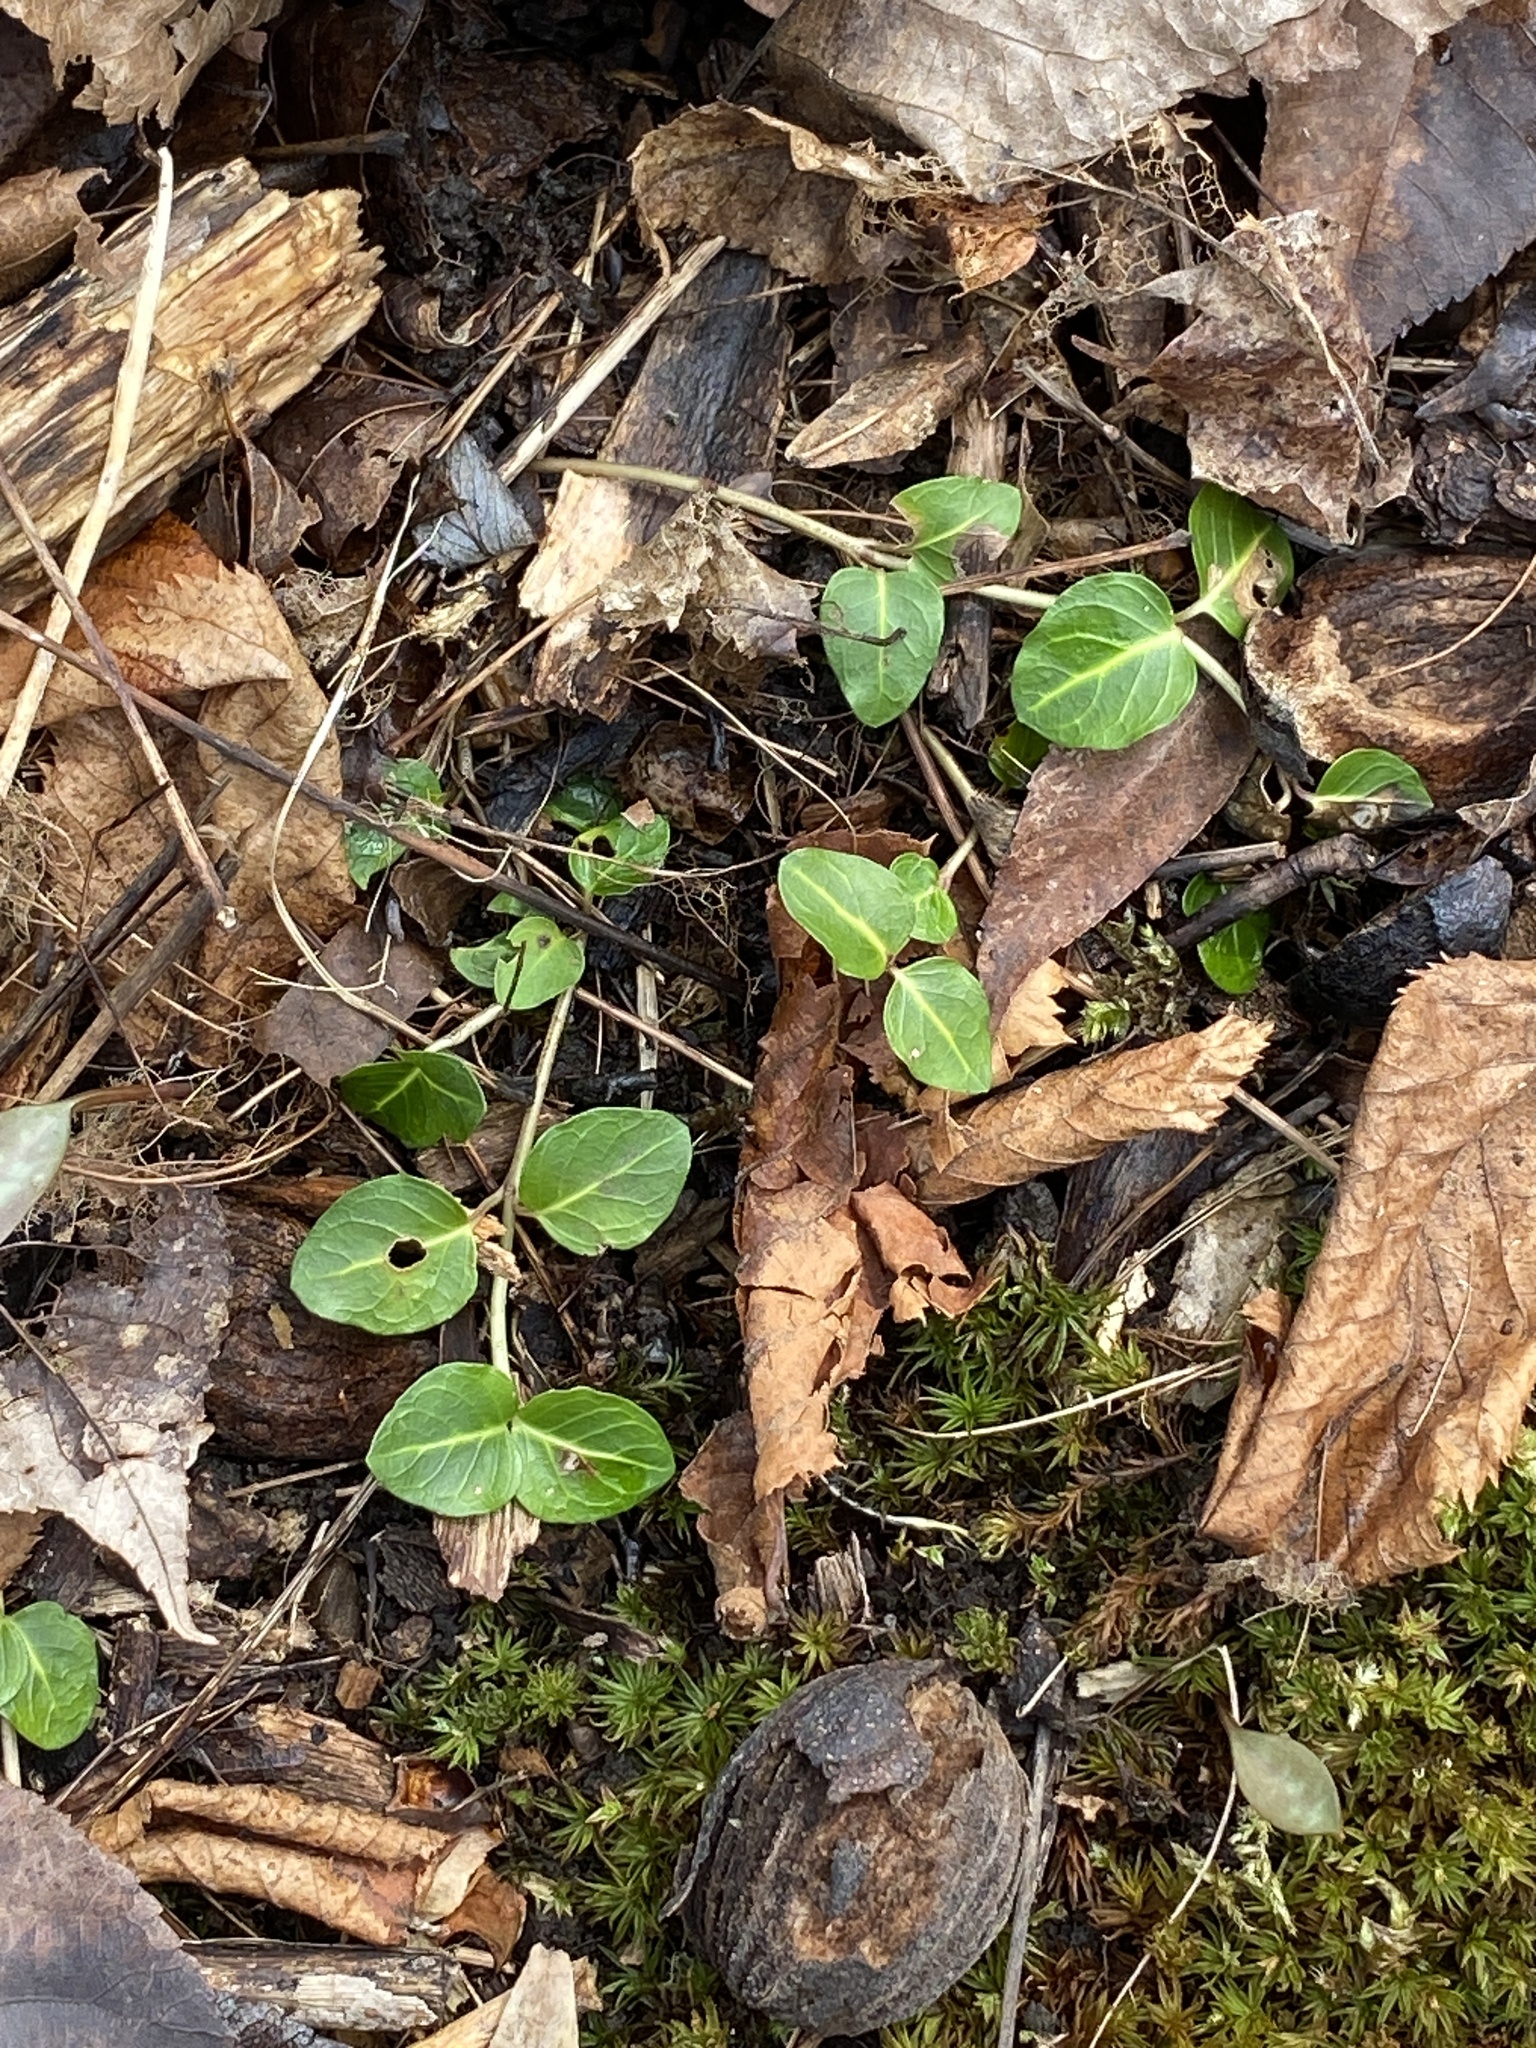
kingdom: Plantae
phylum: Tracheophyta
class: Magnoliopsida
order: Gentianales
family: Rubiaceae
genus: Mitchella
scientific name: Mitchella repens
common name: Partridge-berry
